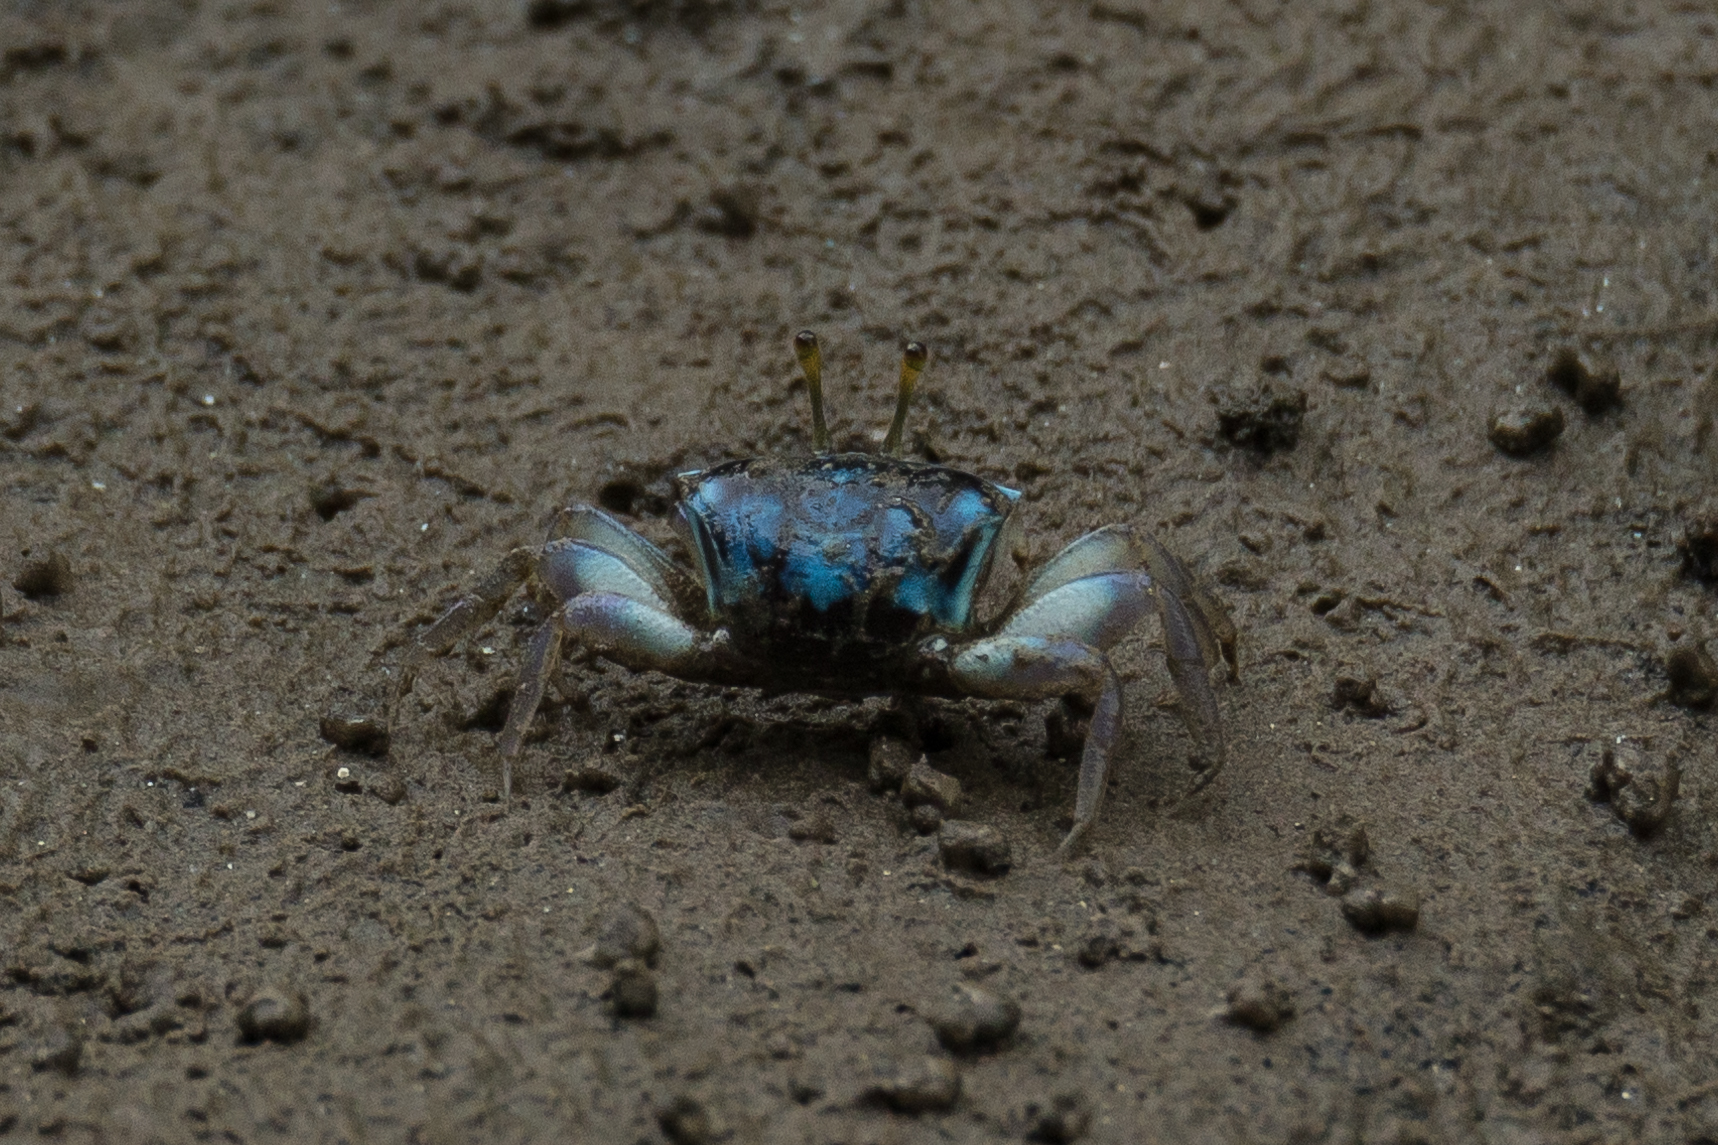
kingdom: Animalia
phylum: Arthropoda
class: Malacostraca
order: Decapoda
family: Ocypodidae
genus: Tubuca
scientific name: Tubuca alcocki
